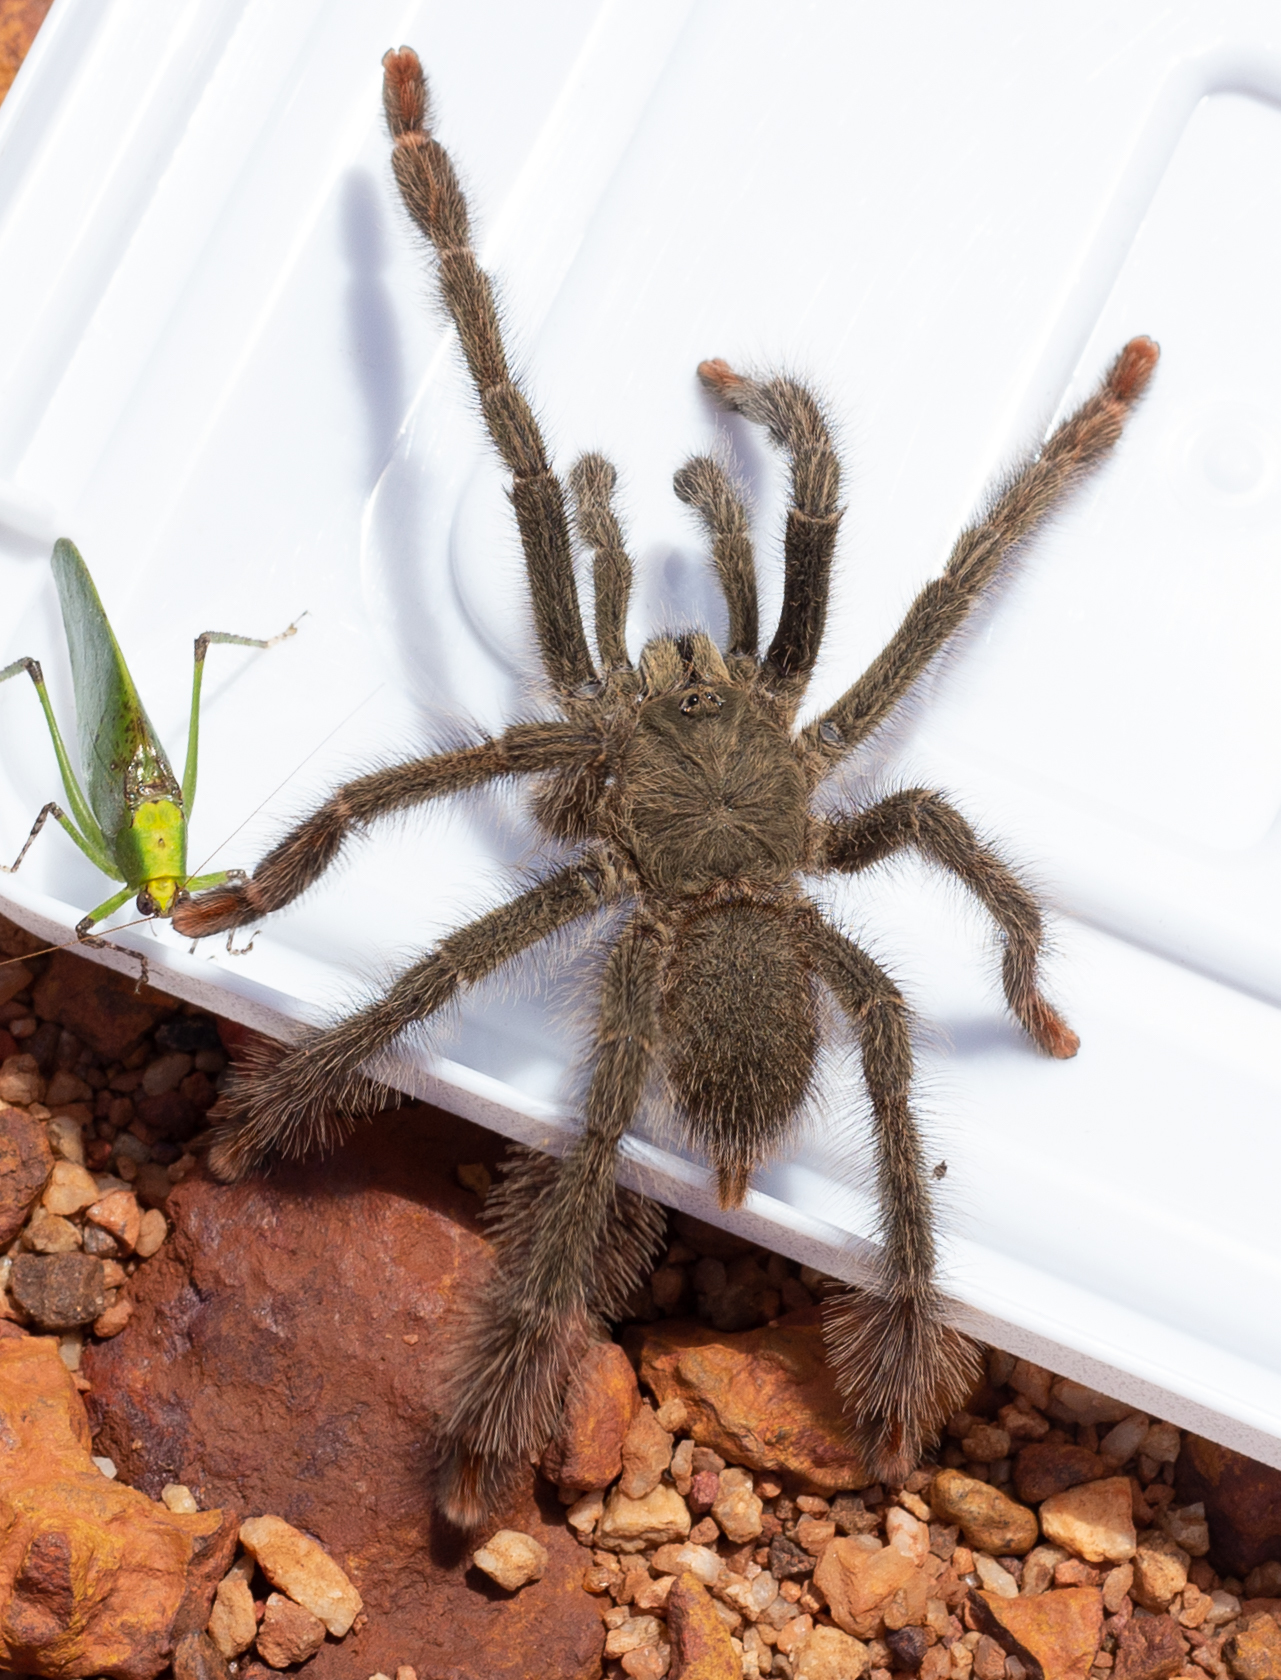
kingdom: Animalia
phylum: Arthropoda
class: Arachnida
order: Araneae
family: Theraphosidae
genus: Amazonius
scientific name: Amazonius germani
